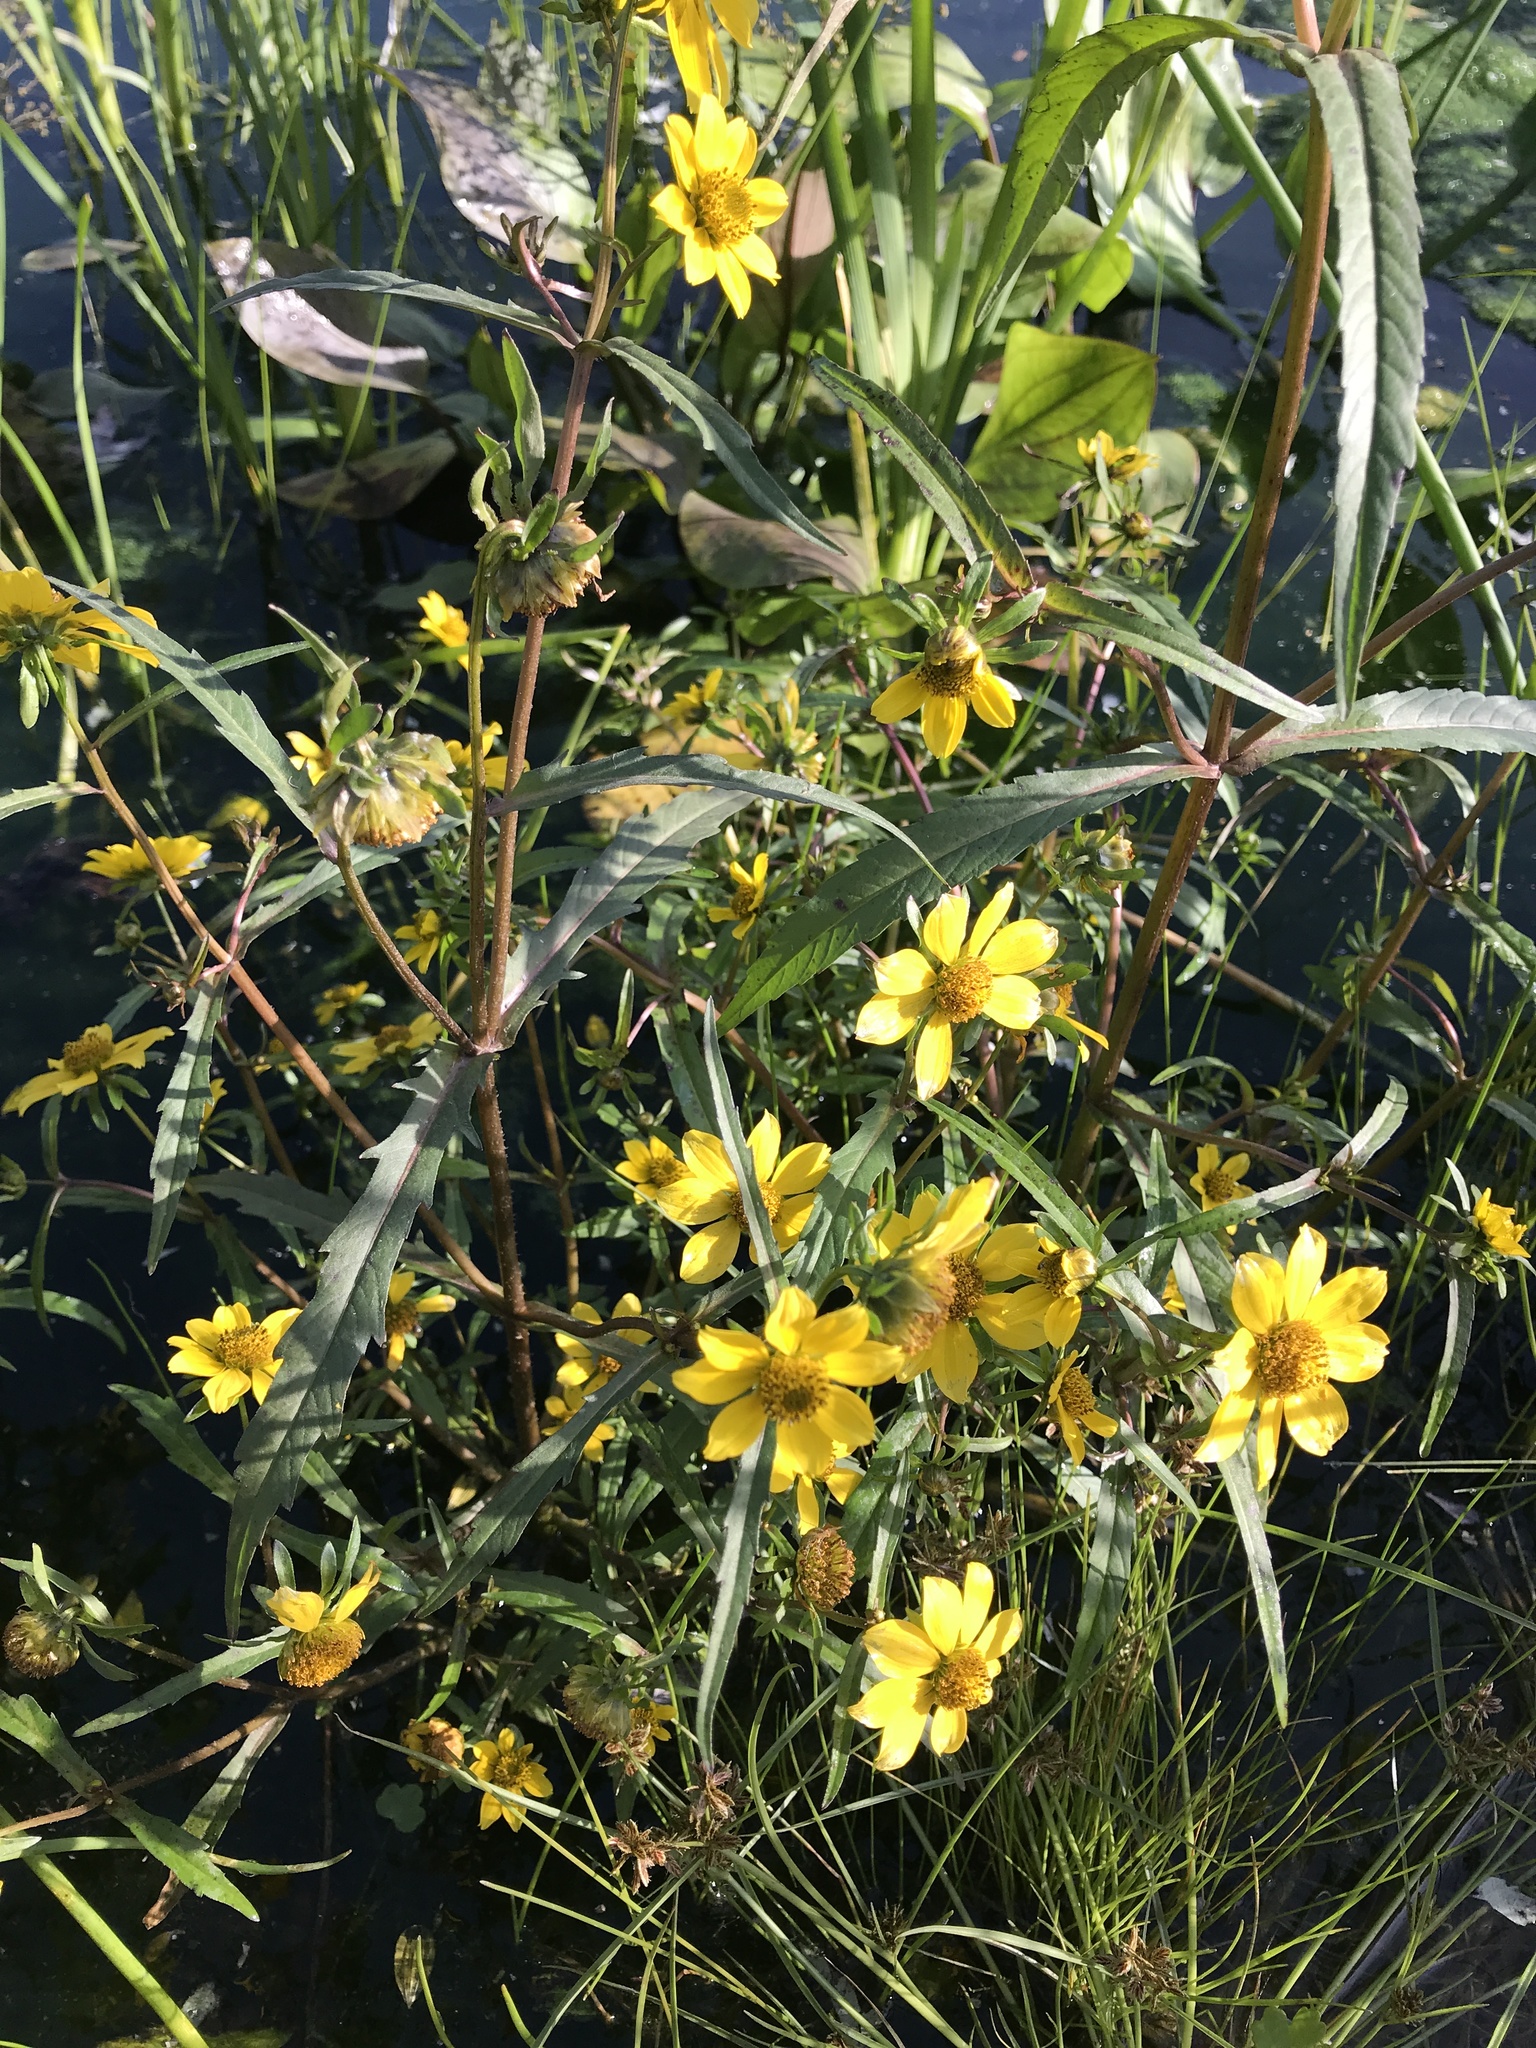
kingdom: Plantae
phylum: Tracheophyta
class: Magnoliopsida
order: Asterales
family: Asteraceae
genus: Bidens
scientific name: Bidens cernua
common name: Nodding bur-marigold
